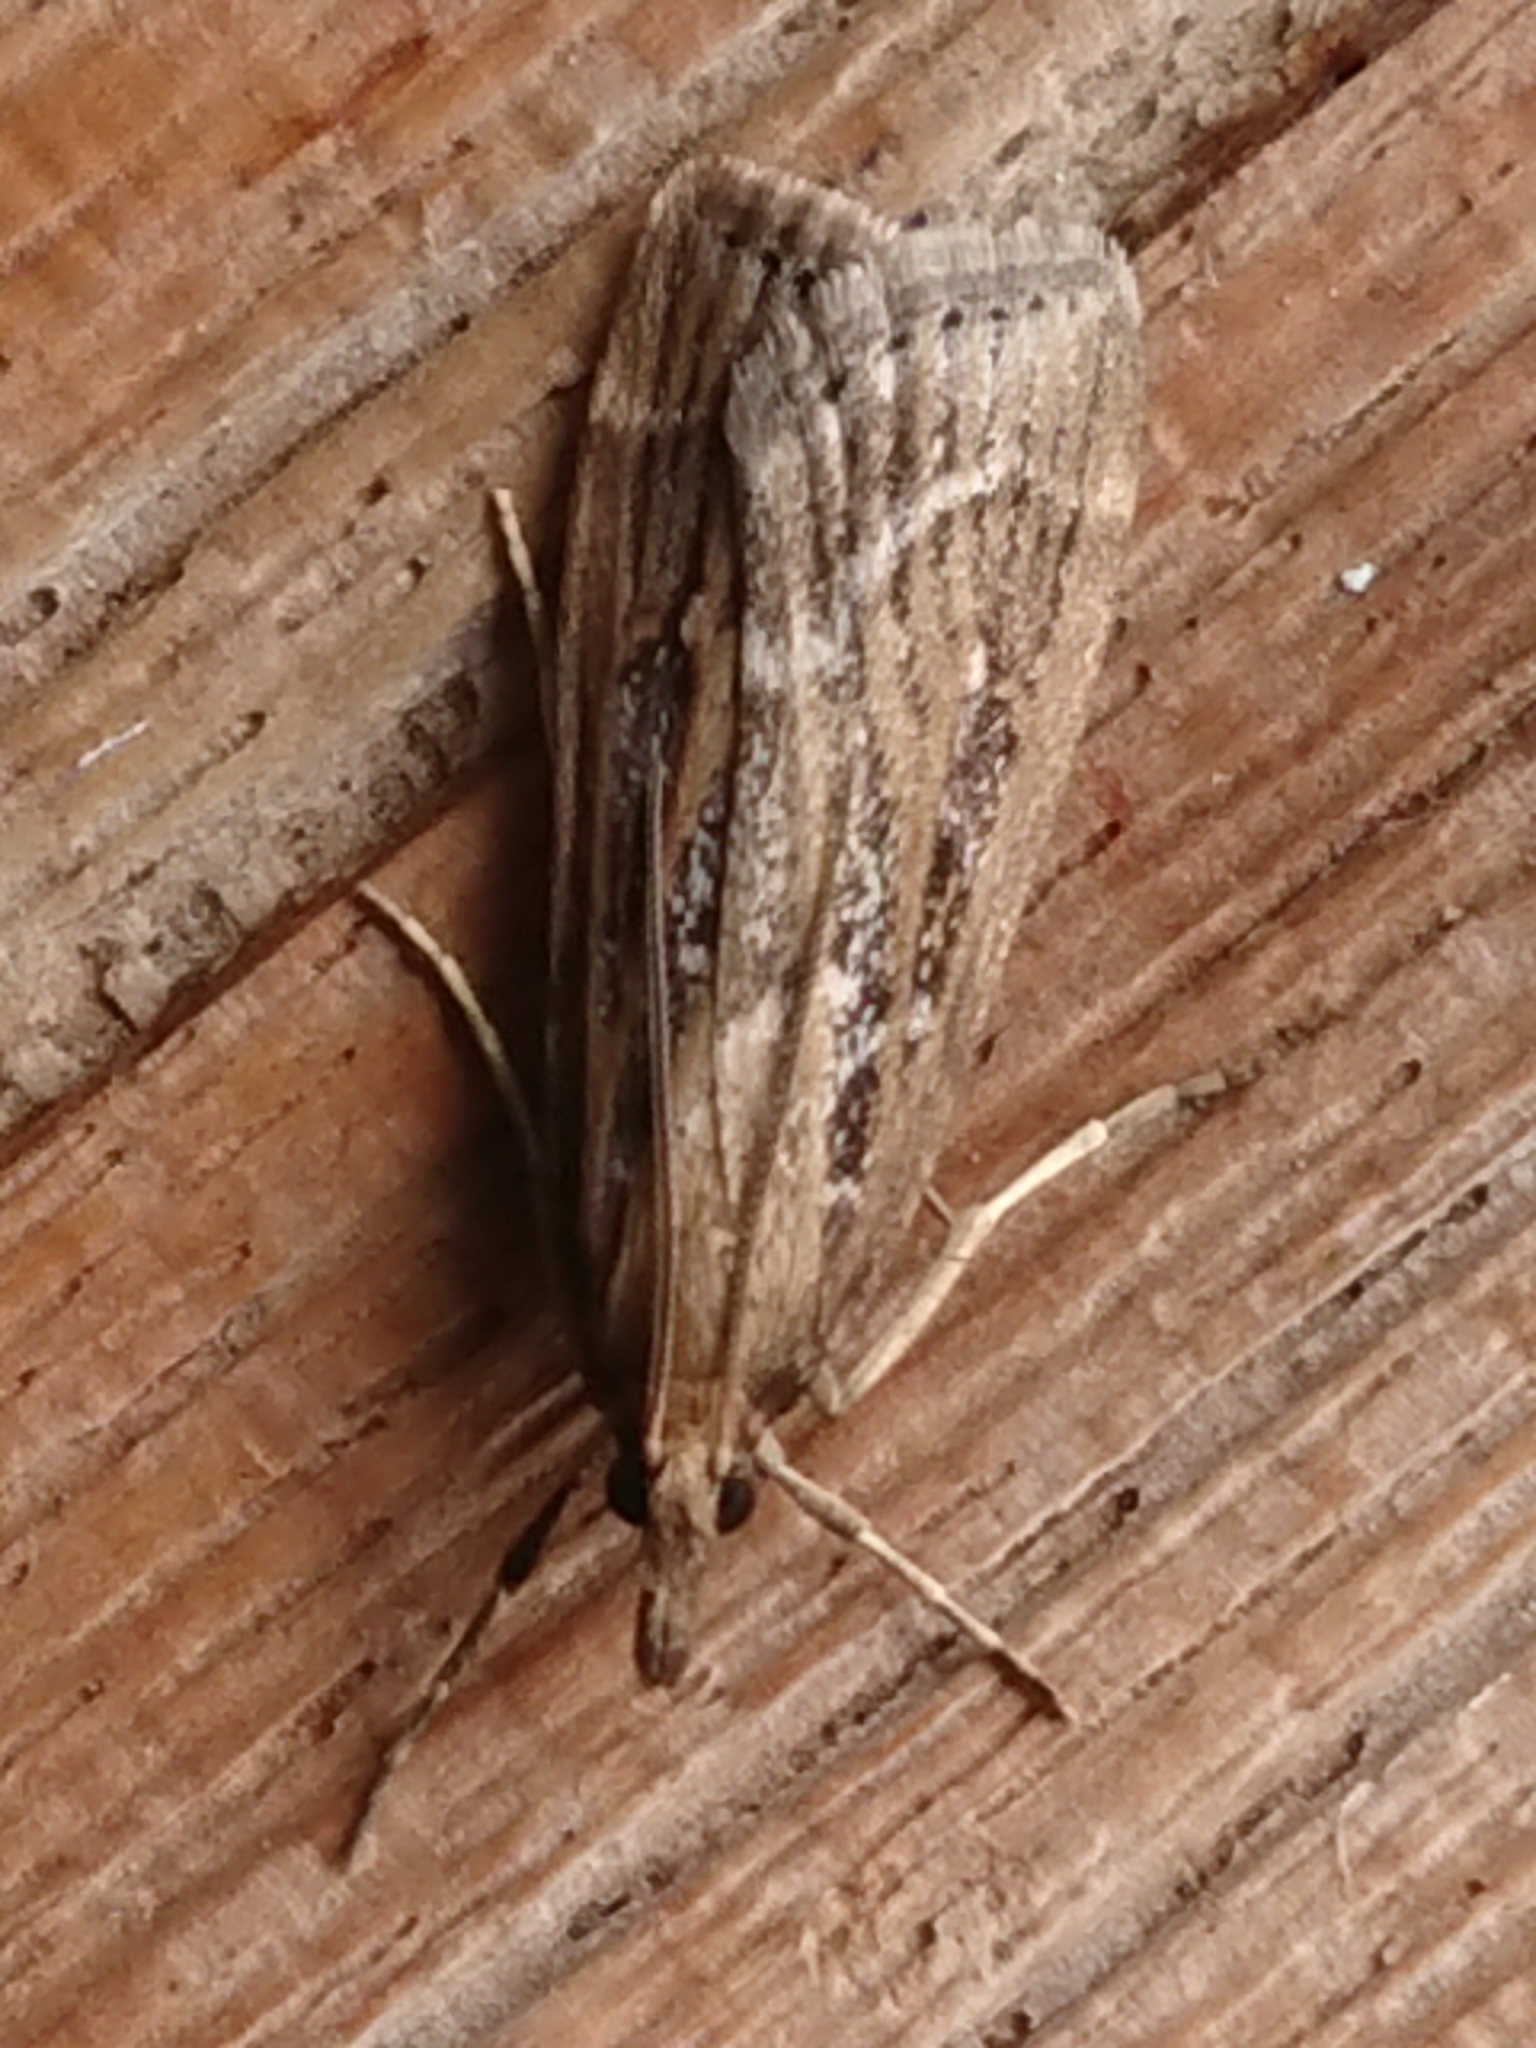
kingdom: Animalia
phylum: Arthropoda
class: Insecta
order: Lepidoptera
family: Crambidae
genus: Eudonia
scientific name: Eudonia octophora
